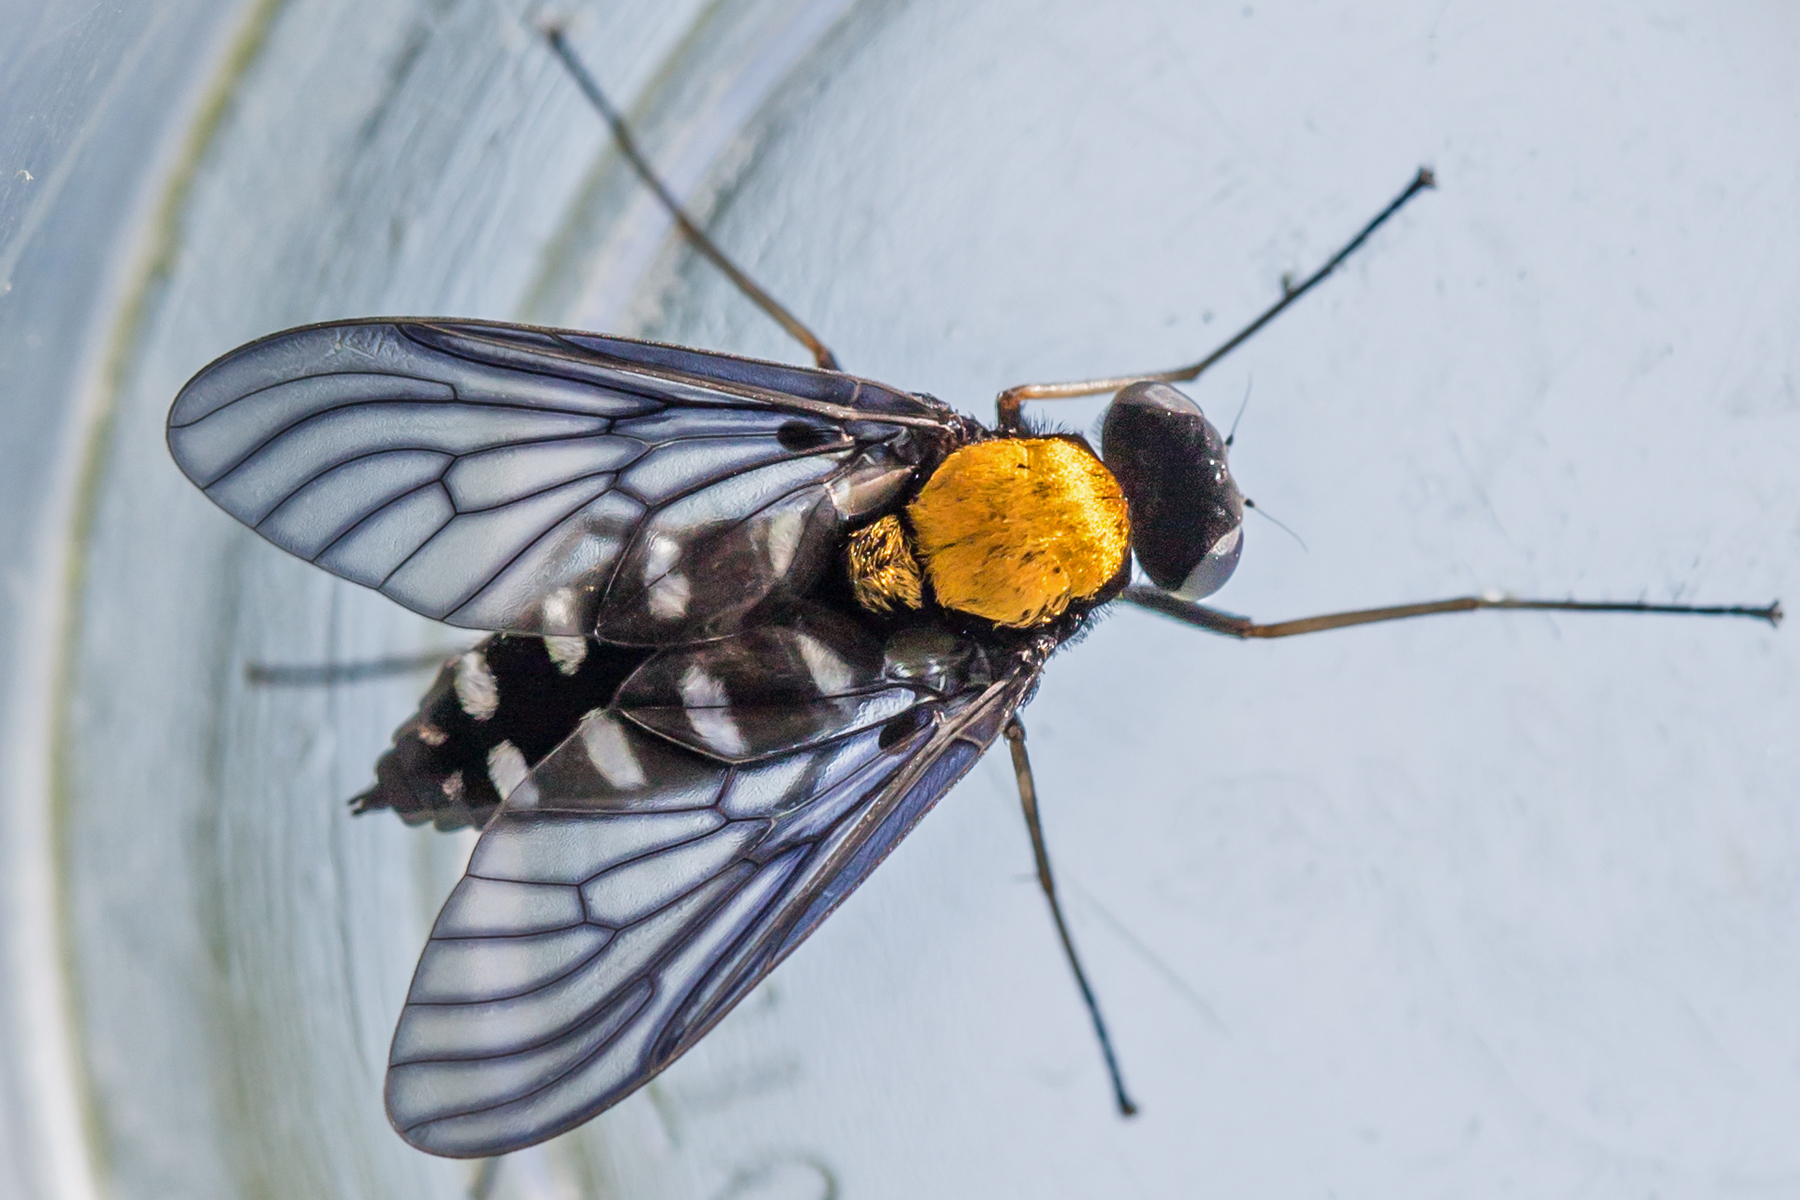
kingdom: Animalia
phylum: Arthropoda
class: Insecta
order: Diptera
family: Rhagionidae
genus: Chrysopilus
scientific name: Chrysopilus thoracicus
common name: Golden-backed snipe fly
